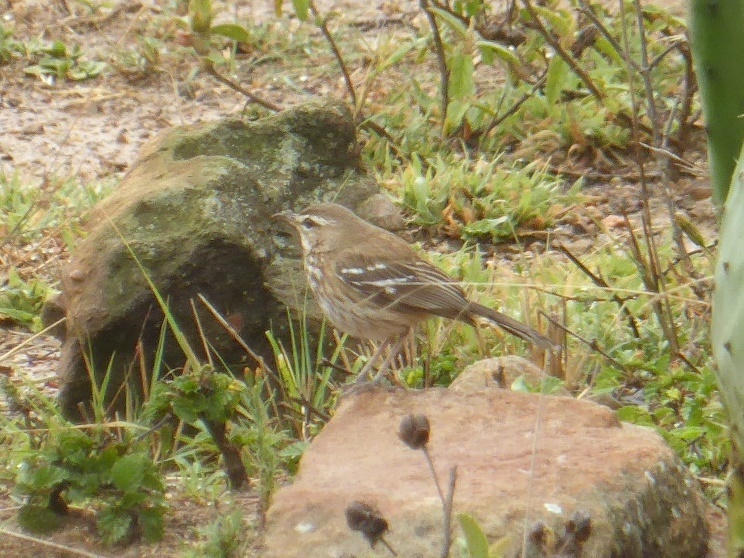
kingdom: Animalia
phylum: Chordata
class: Aves
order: Passeriformes
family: Muscicapidae
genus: Erythropygia
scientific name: Erythropygia leucophrys
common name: White-browed scrub robin
